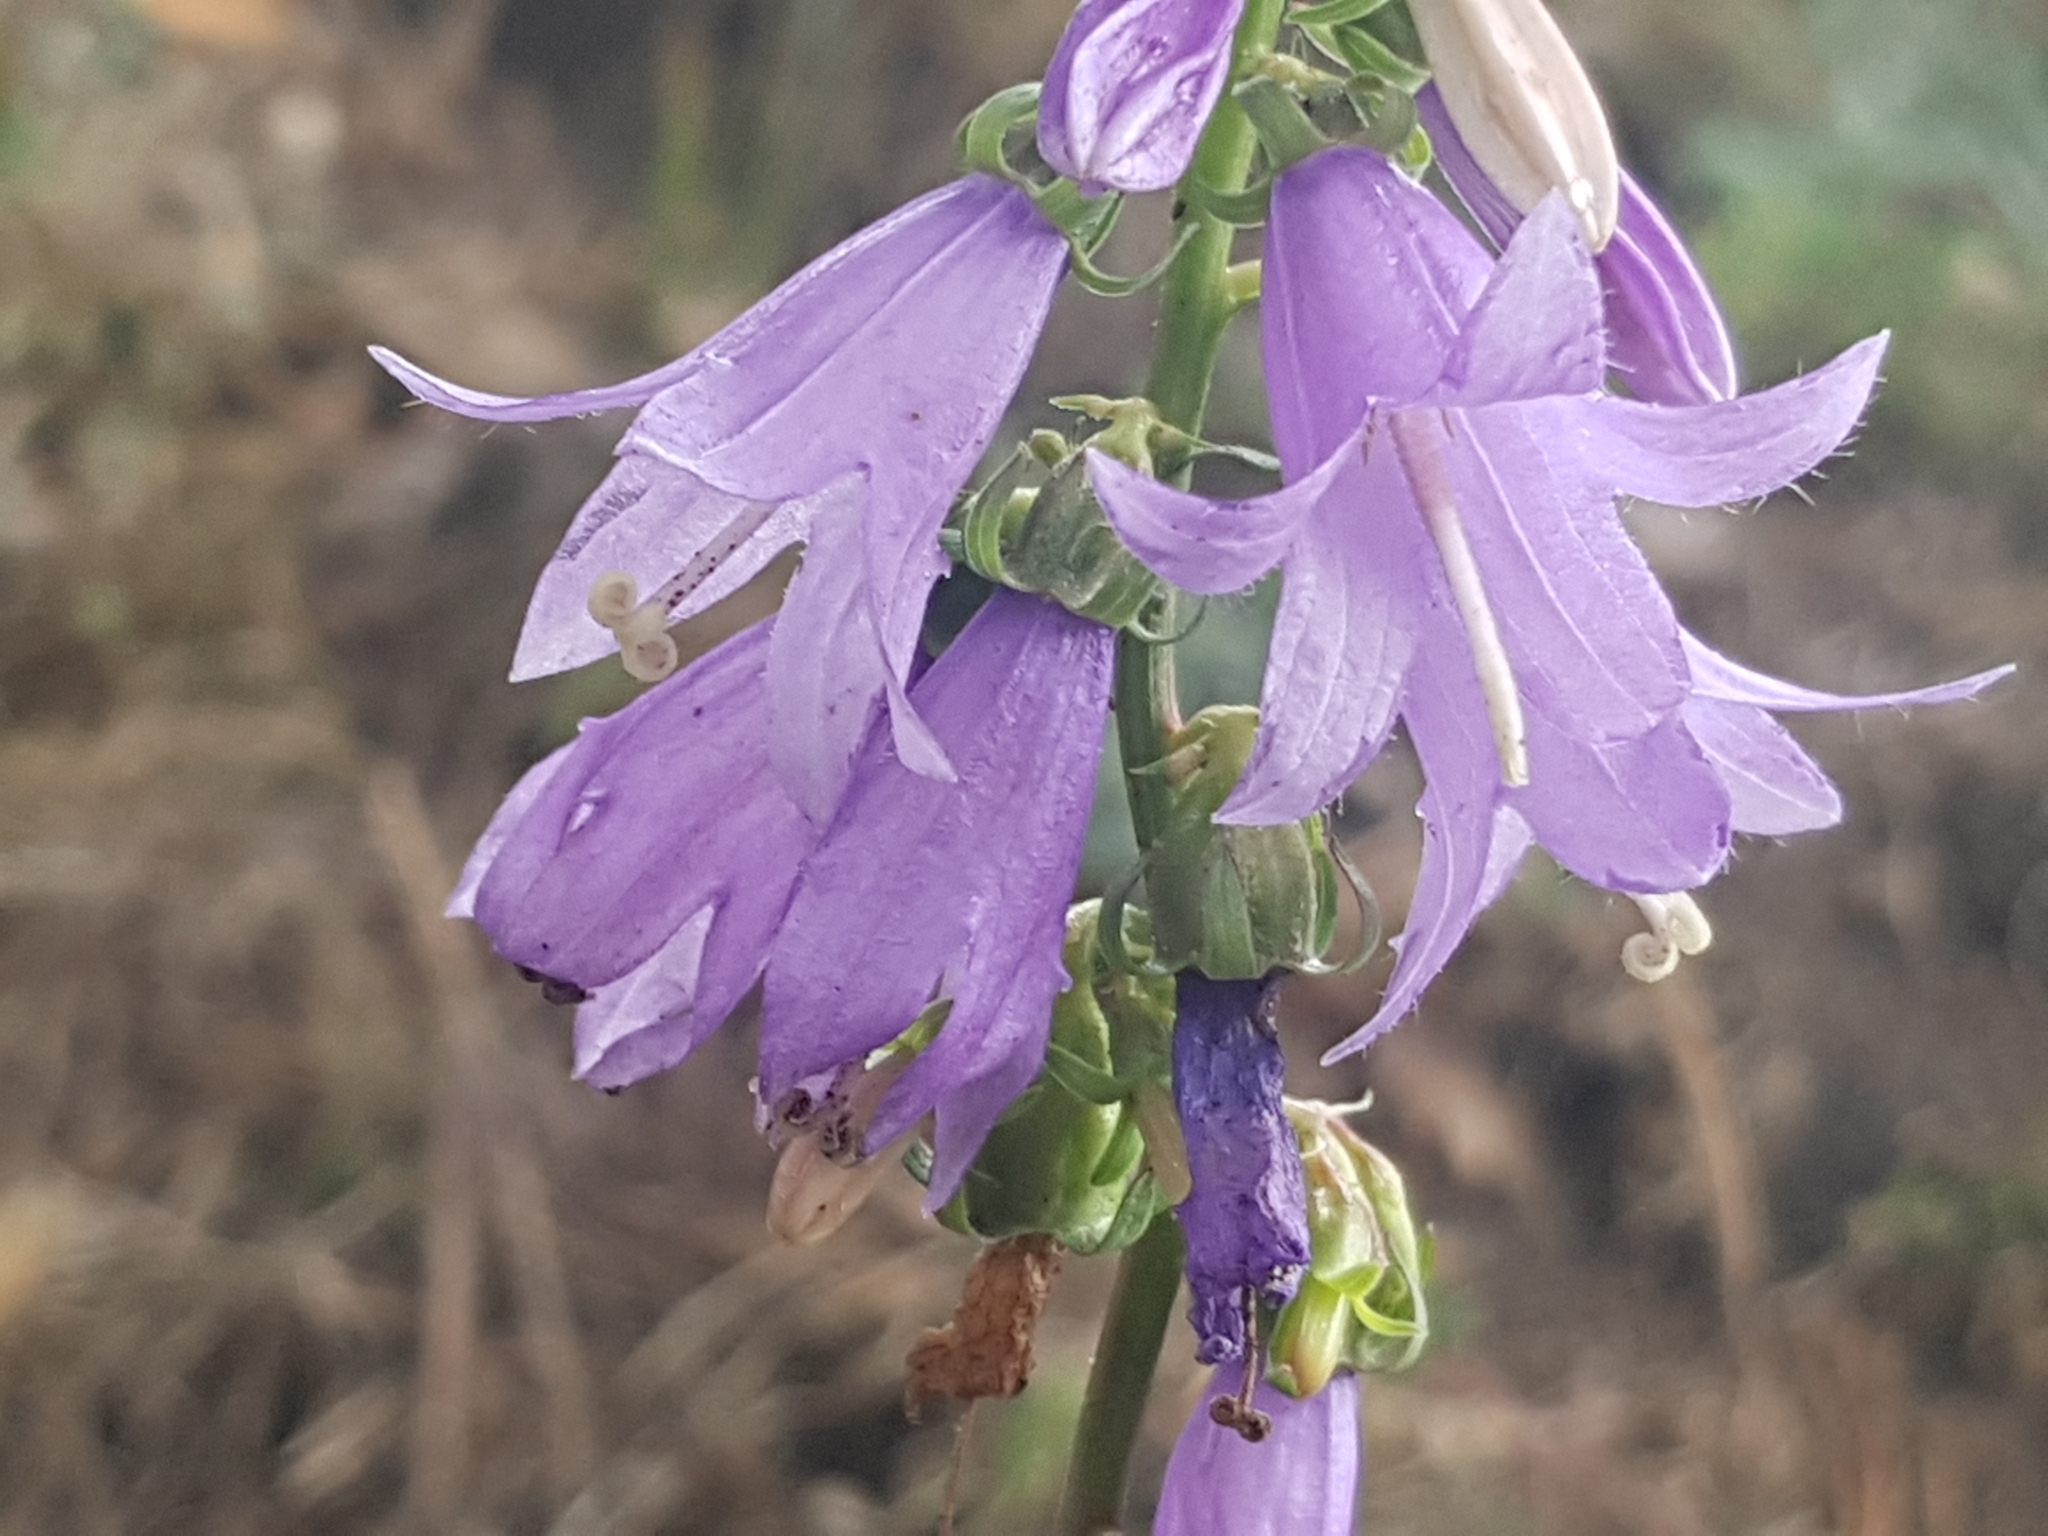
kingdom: Plantae
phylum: Tracheophyta
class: Magnoliopsida
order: Asterales
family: Campanulaceae
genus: Campanula
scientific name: Campanula rapunculoides
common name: Creeping bellflower
